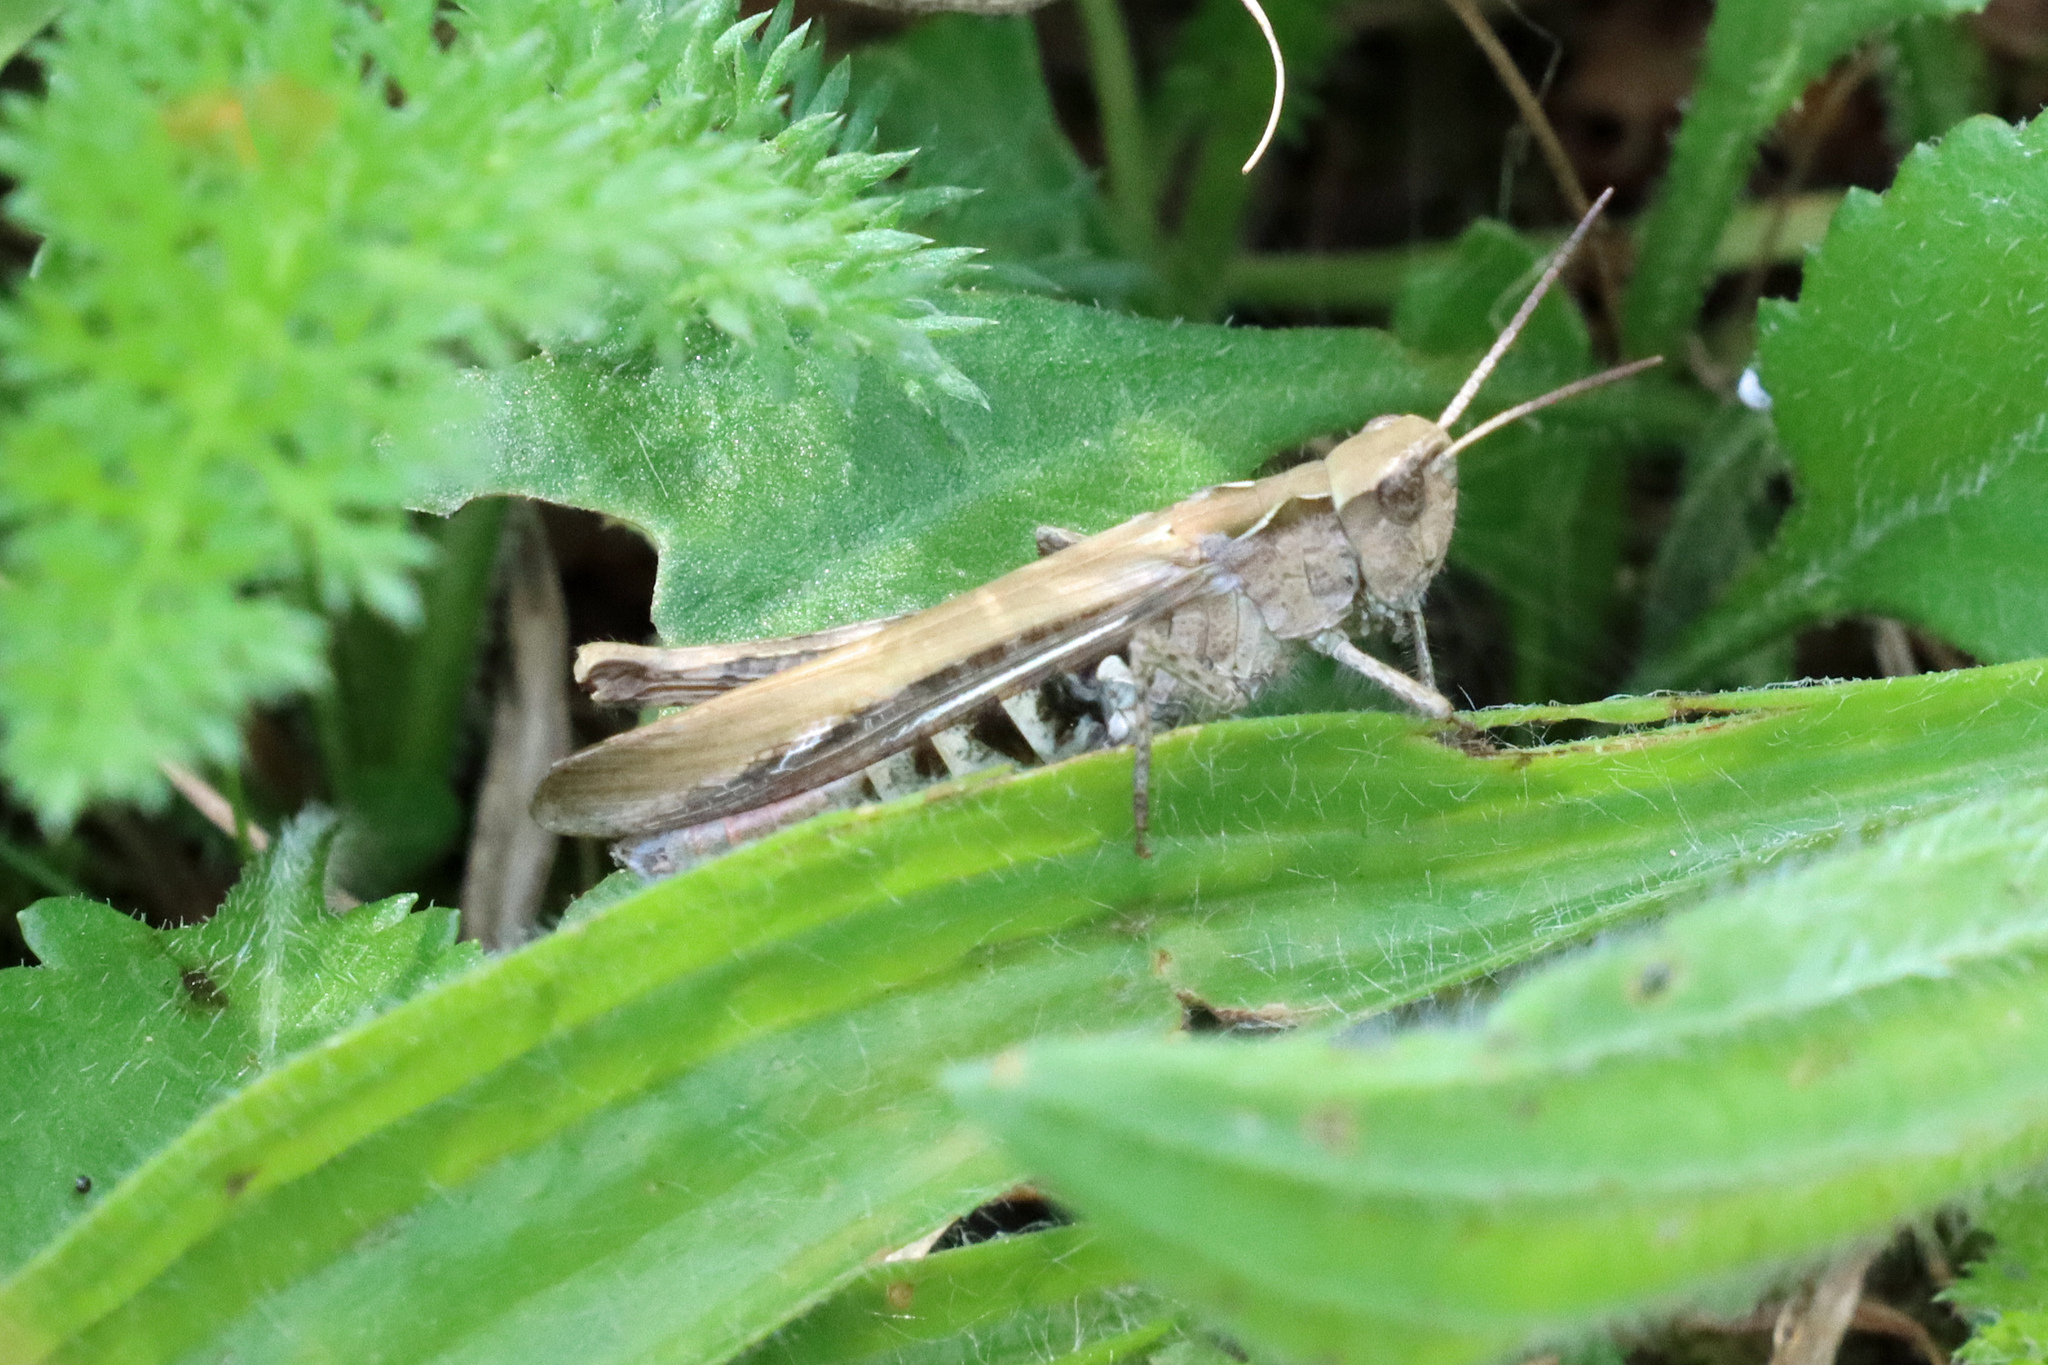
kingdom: Animalia
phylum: Arthropoda
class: Insecta
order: Orthoptera
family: Acrididae
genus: Chorthippus
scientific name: Chorthippus brunneus
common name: Field grasshopper
